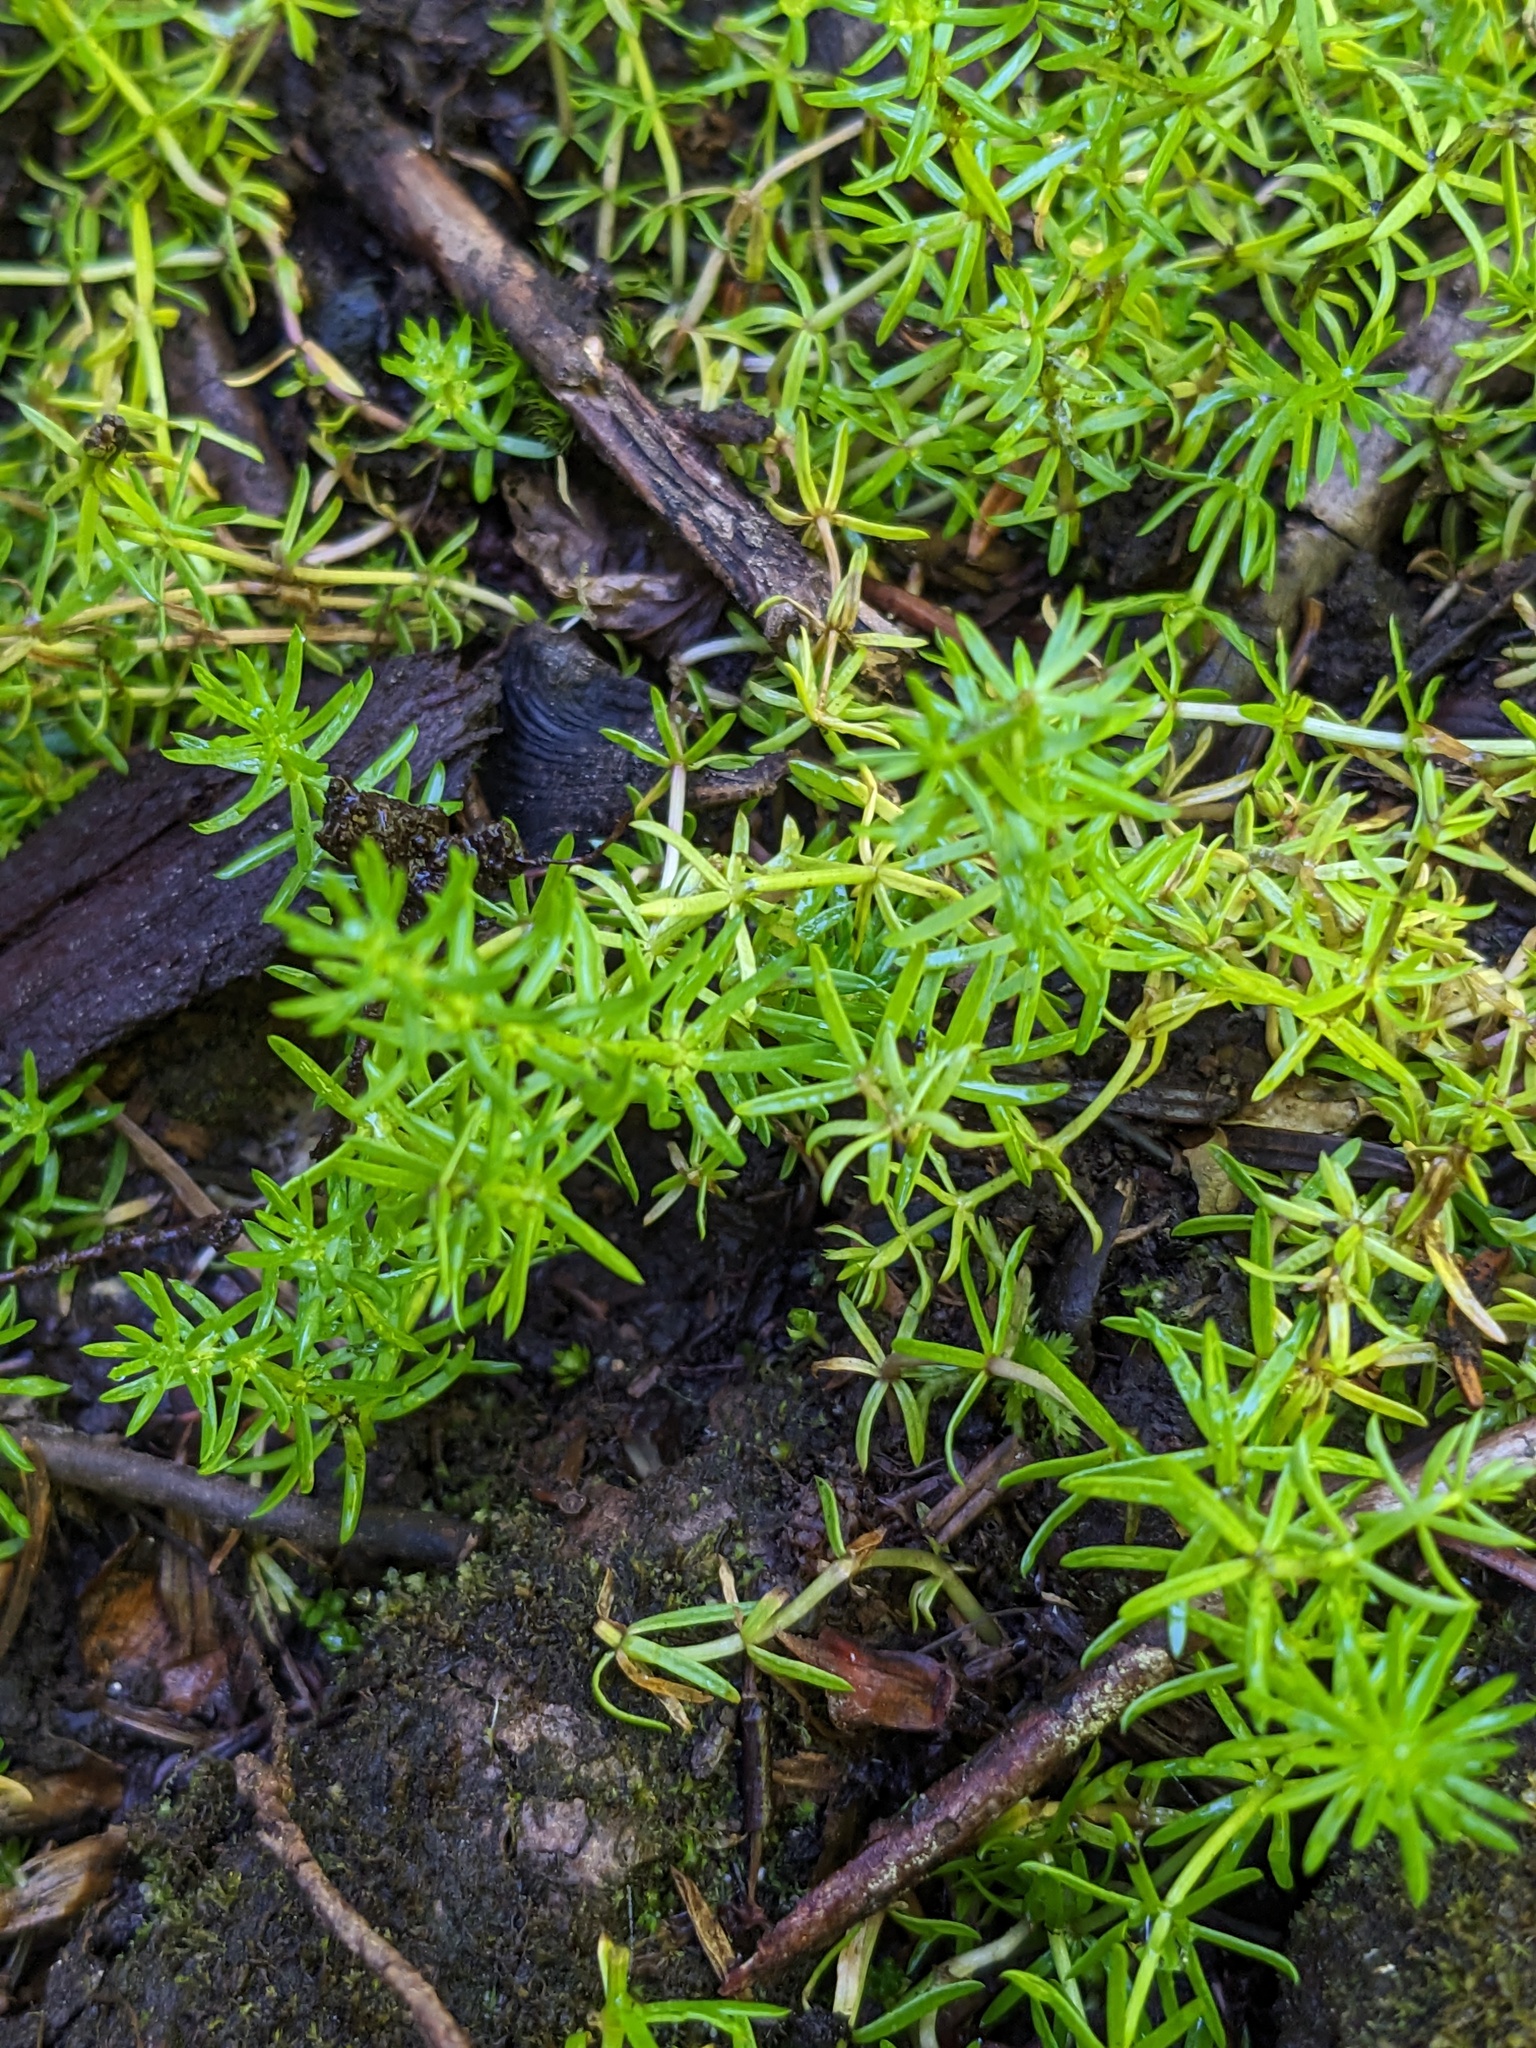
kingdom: Plantae
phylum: Tracheophyta
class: Magnoliopsida
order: Lamiales
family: Plantaginaceae
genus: Hippuris
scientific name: Hippuris montana
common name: Mountain mare's-tail
